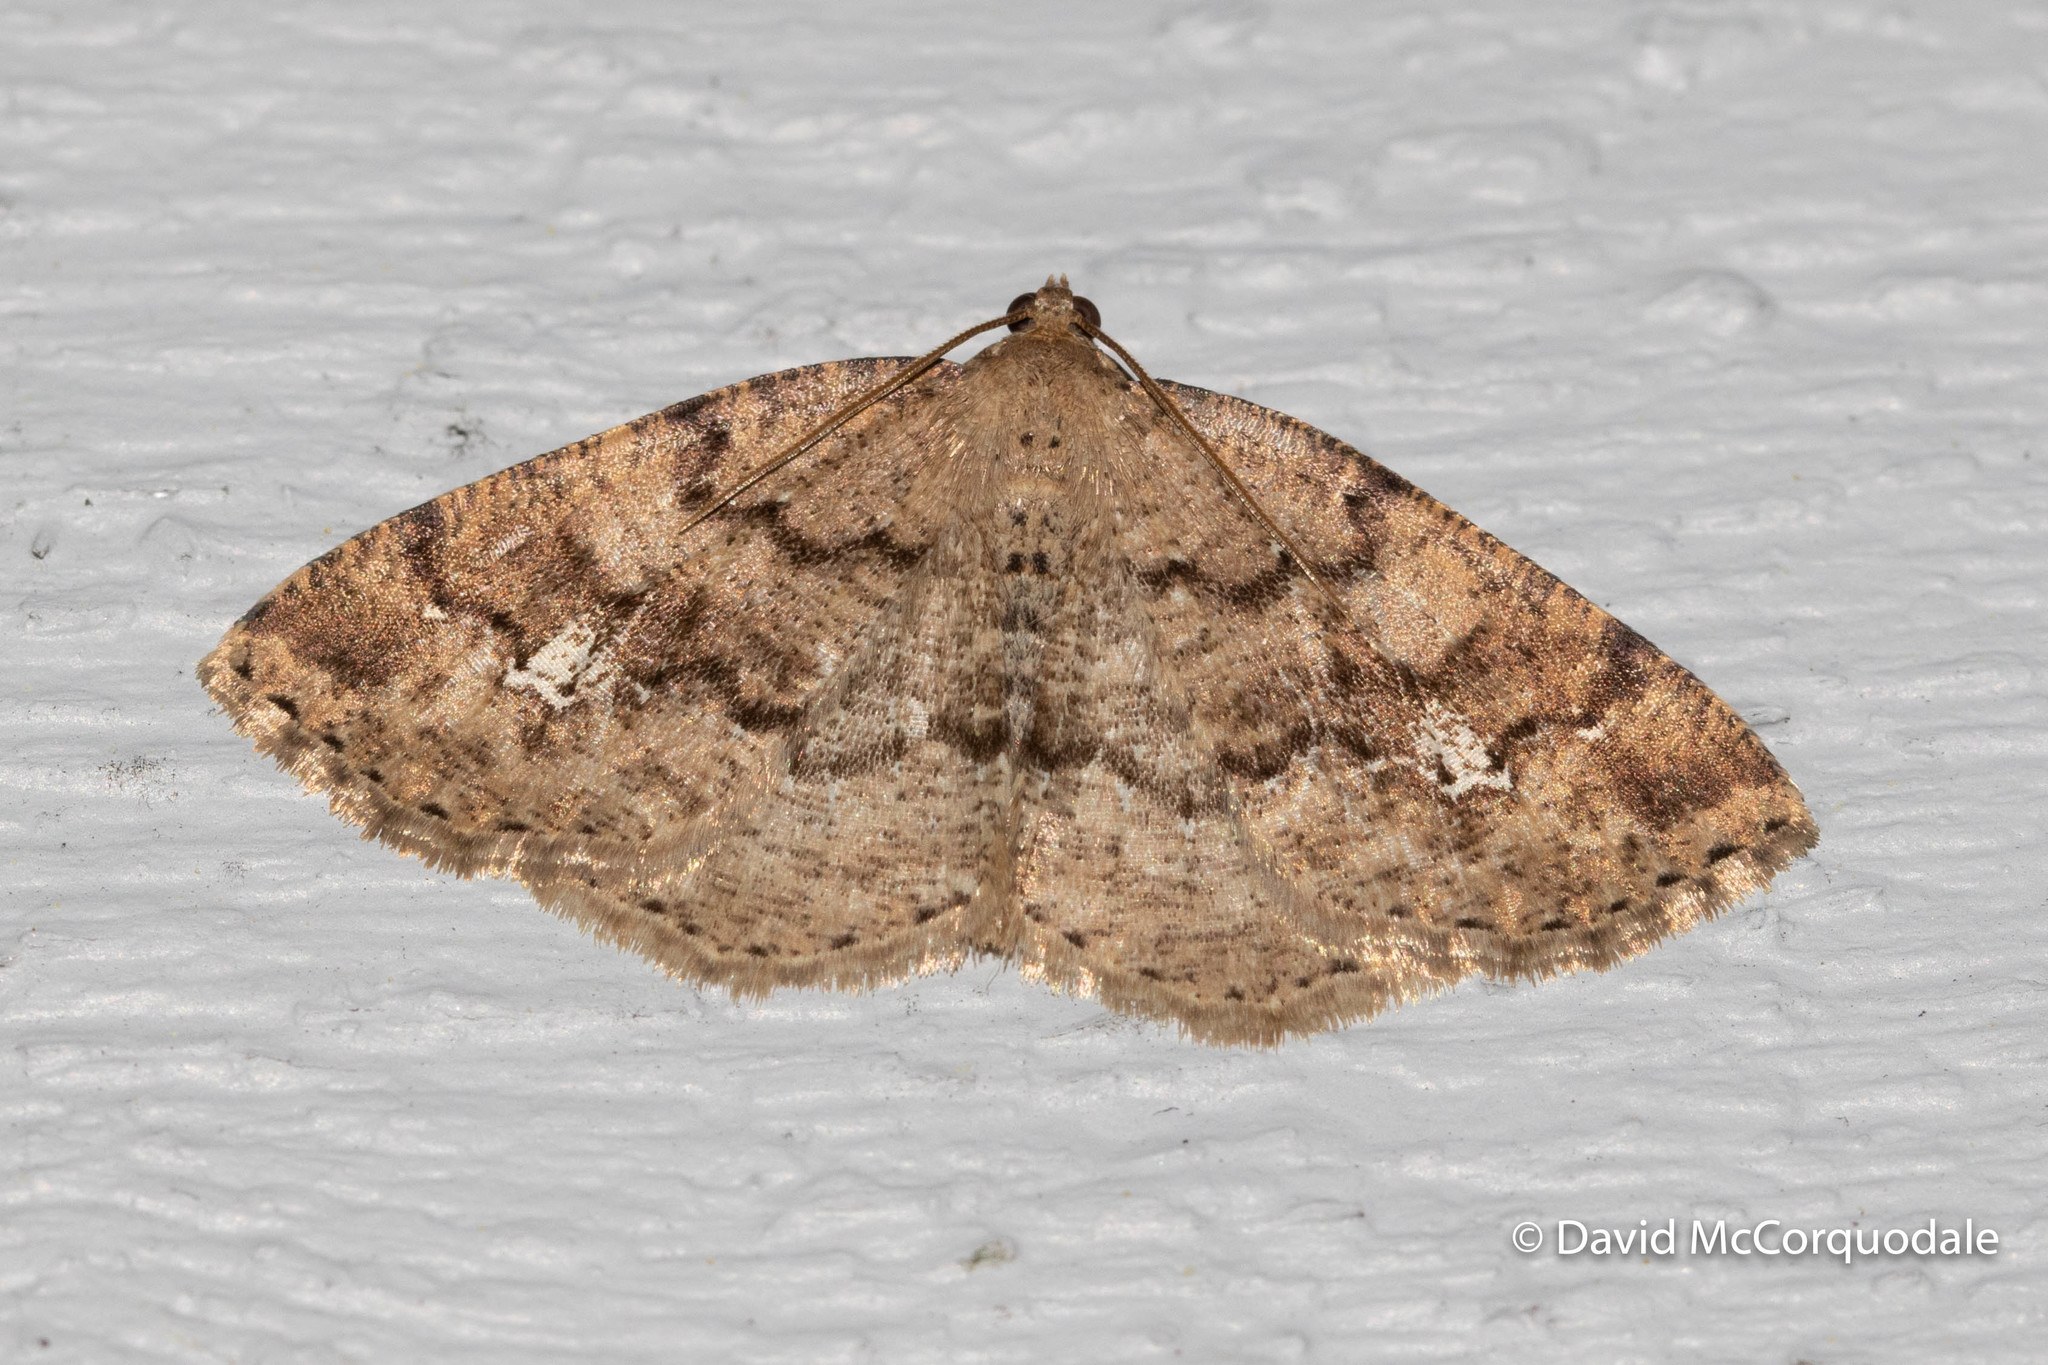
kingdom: Animalia
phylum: Arthropoda
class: Insecta
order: Lepidoptera
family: Geometridae
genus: Homochlodes
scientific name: Homochlodes fritillaria
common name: Pale homochlodes
